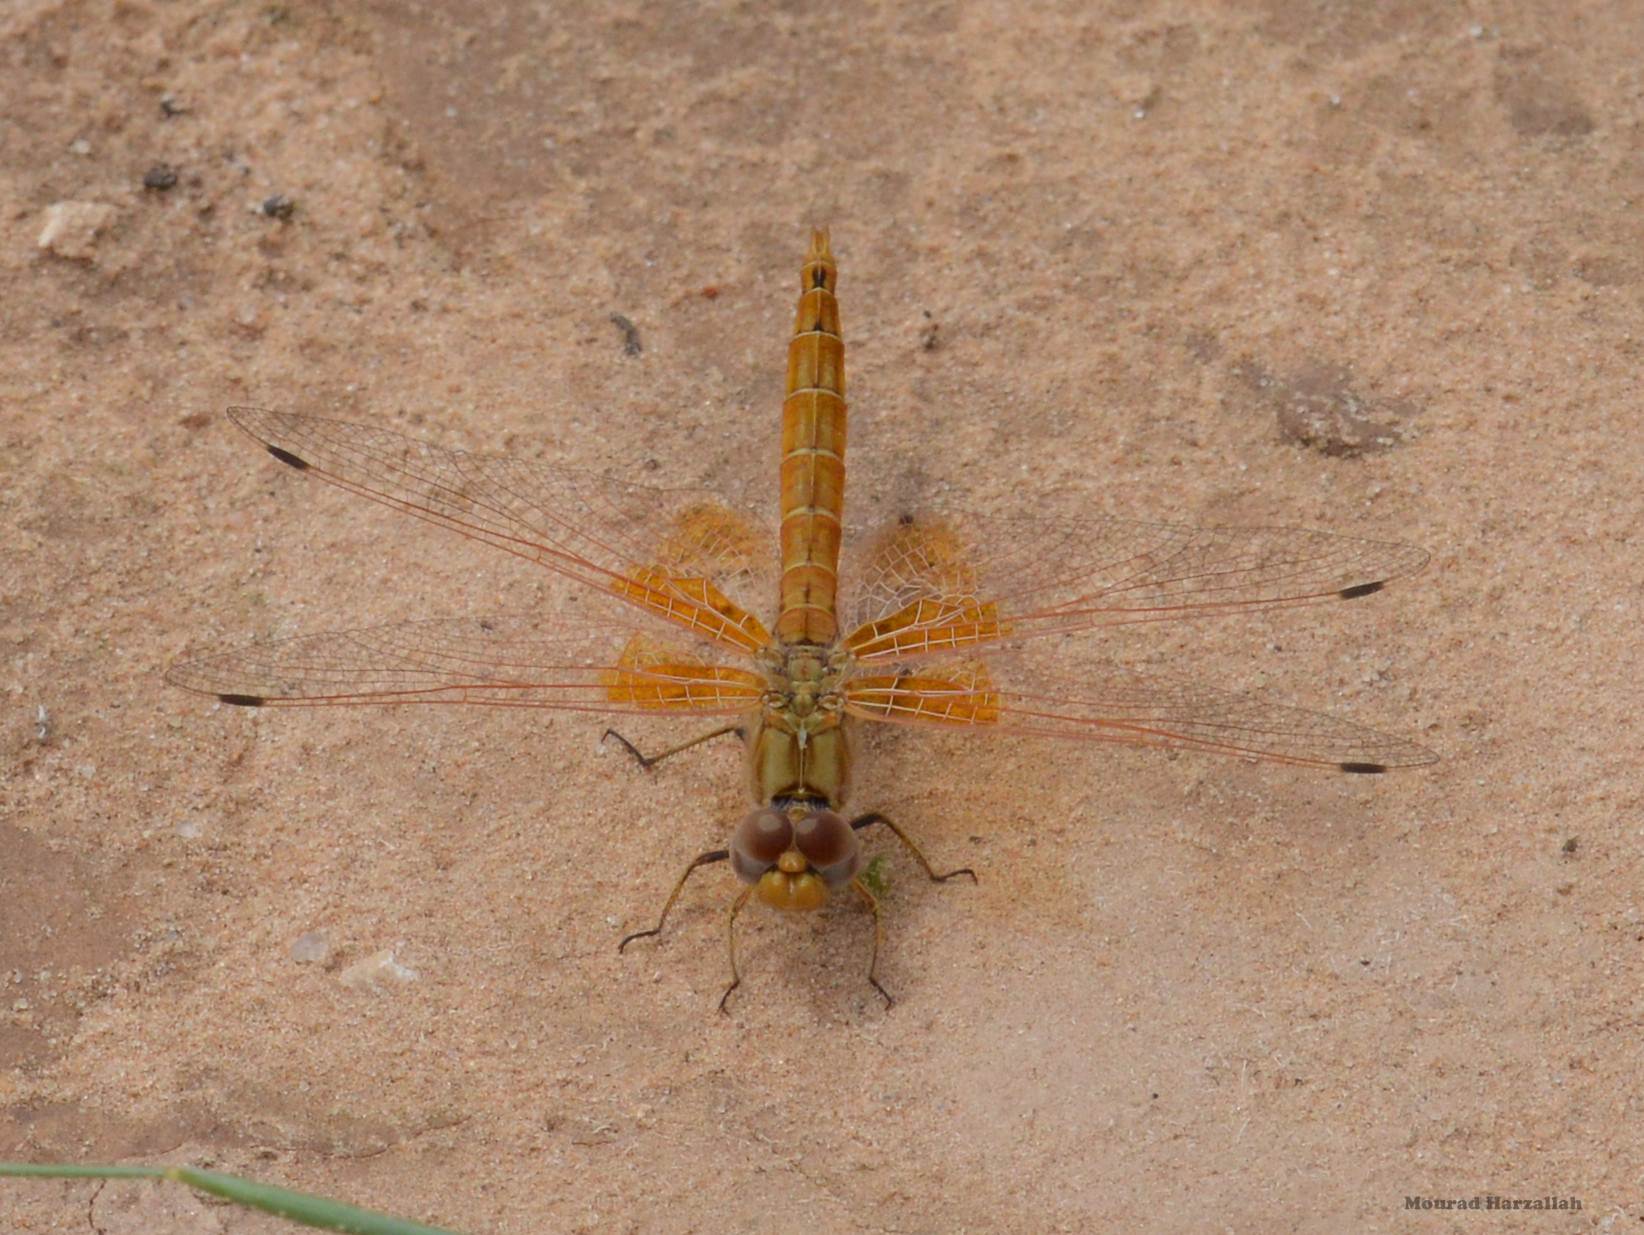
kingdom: Animalia
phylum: Arthropoda
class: Insecta
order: Odonata
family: Libellulidae
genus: Trithemis
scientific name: Trithemis kirbyi
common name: Kirby's dropwing
